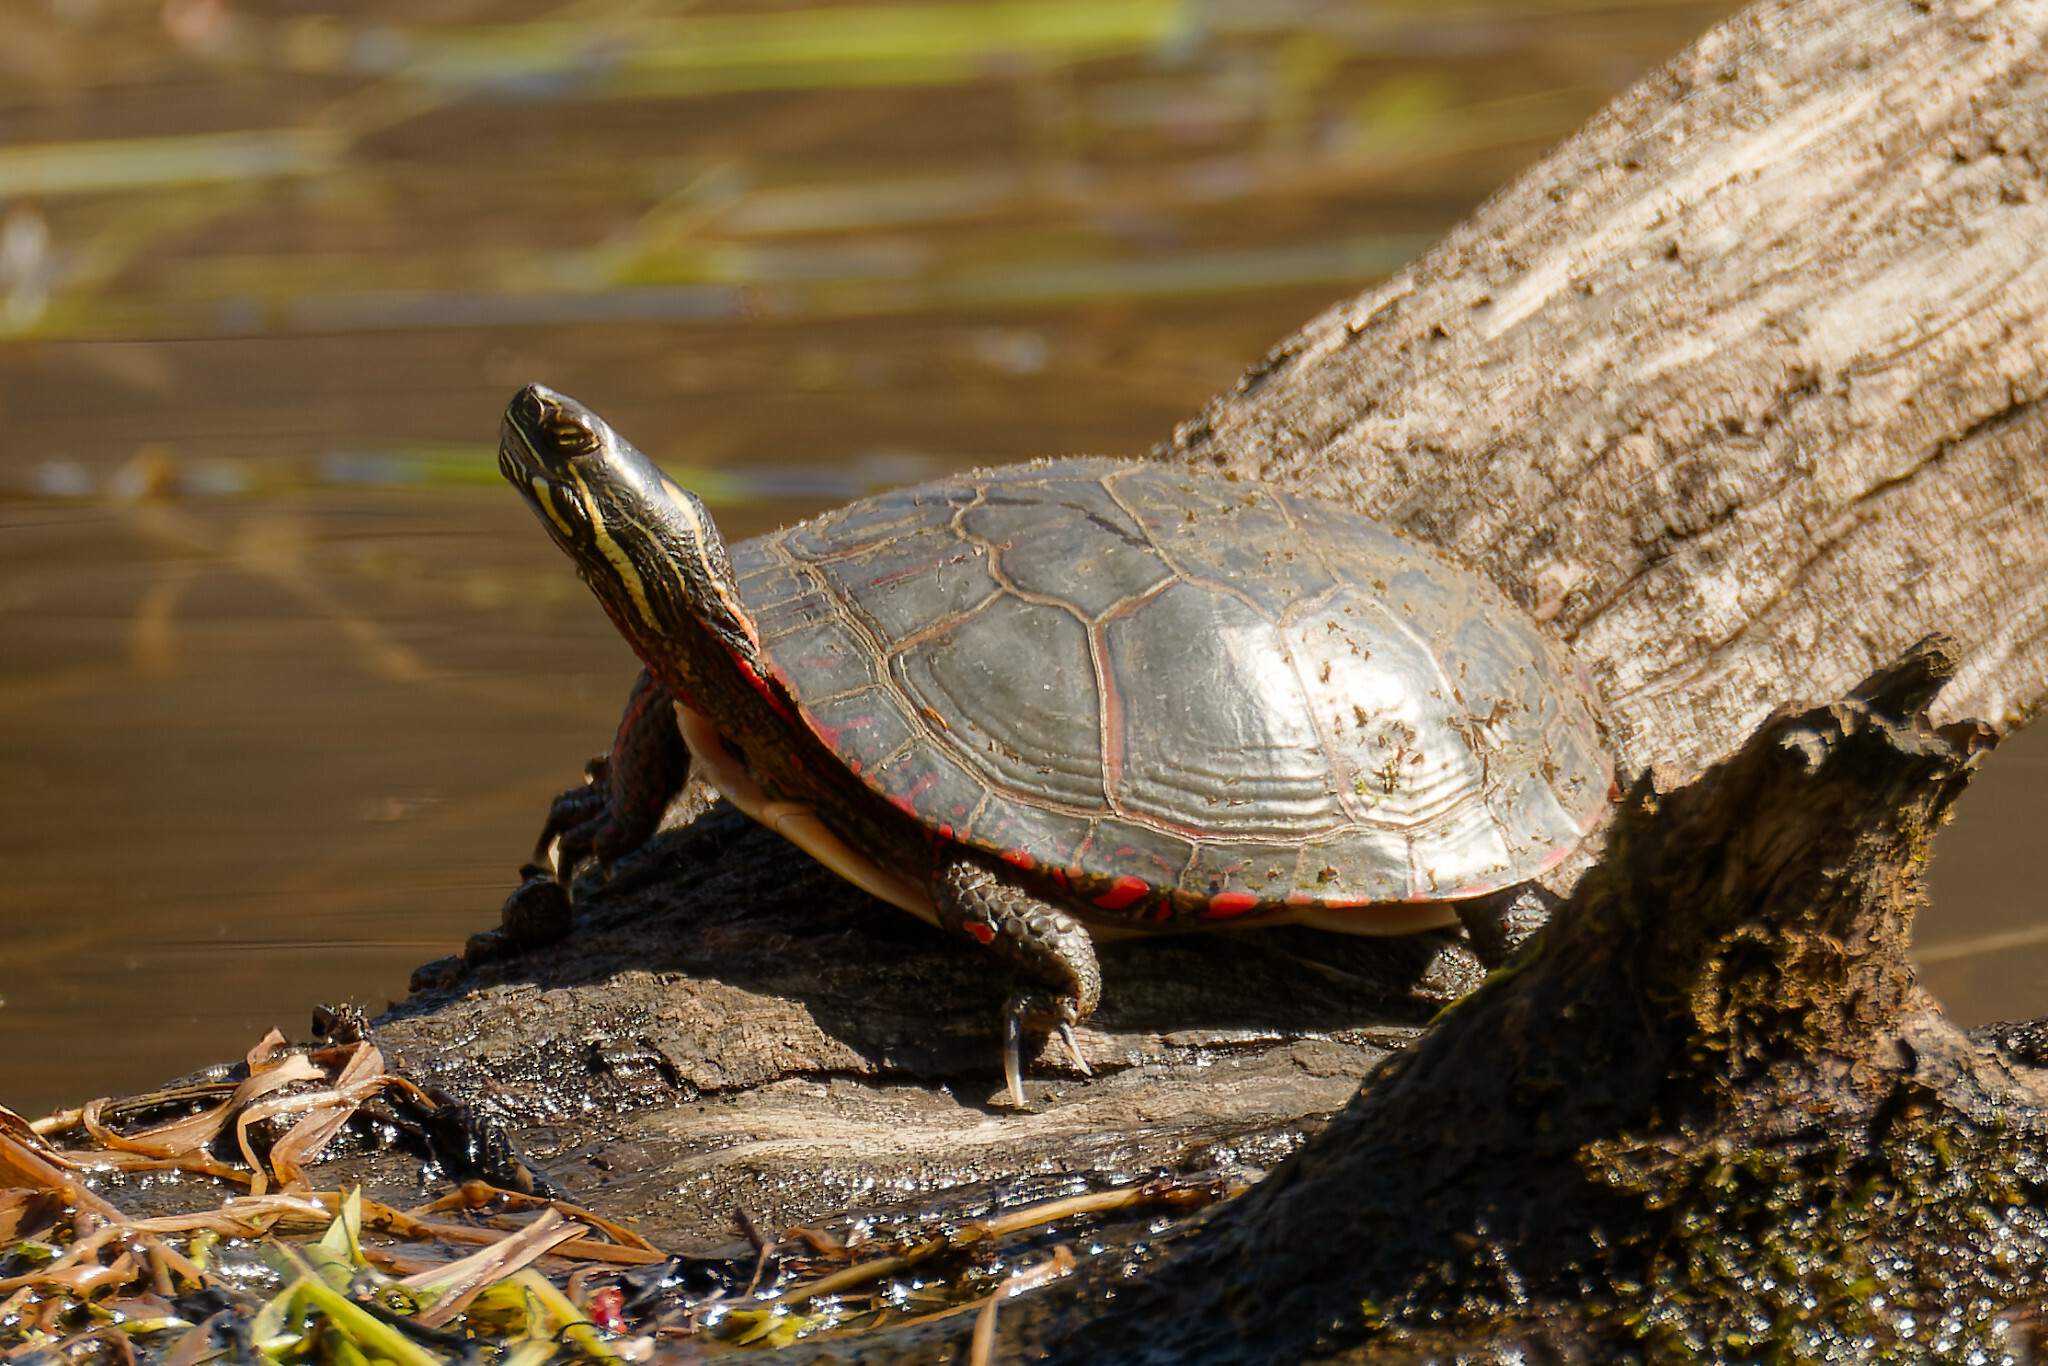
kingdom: Animalia
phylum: Chordata
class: Testudines
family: Emydidae
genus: Chrysemys
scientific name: Chrysemys picta
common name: Painted turtle
